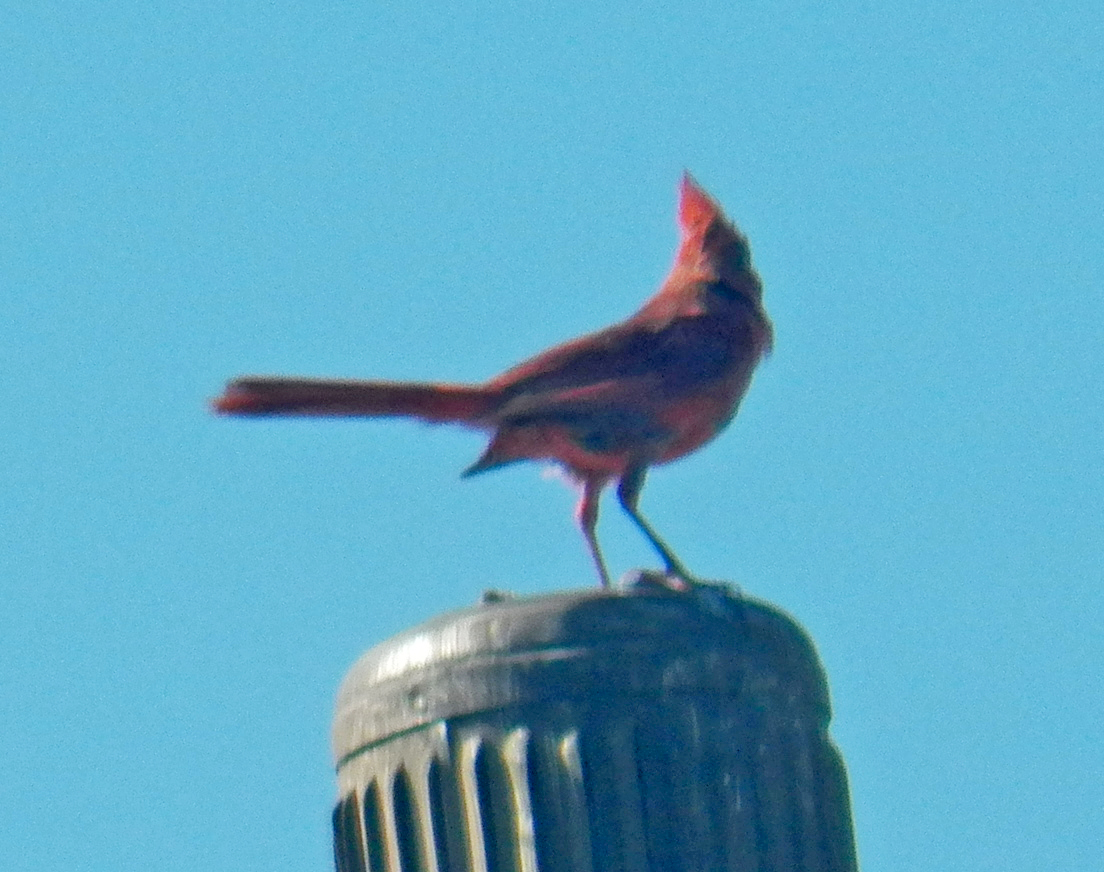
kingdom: Animalia
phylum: Chordata
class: Aves
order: Passeriformes
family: Cardinalidae
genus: Cardinalis
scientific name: Cardinalis cardinalis
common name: Northern cardinal
